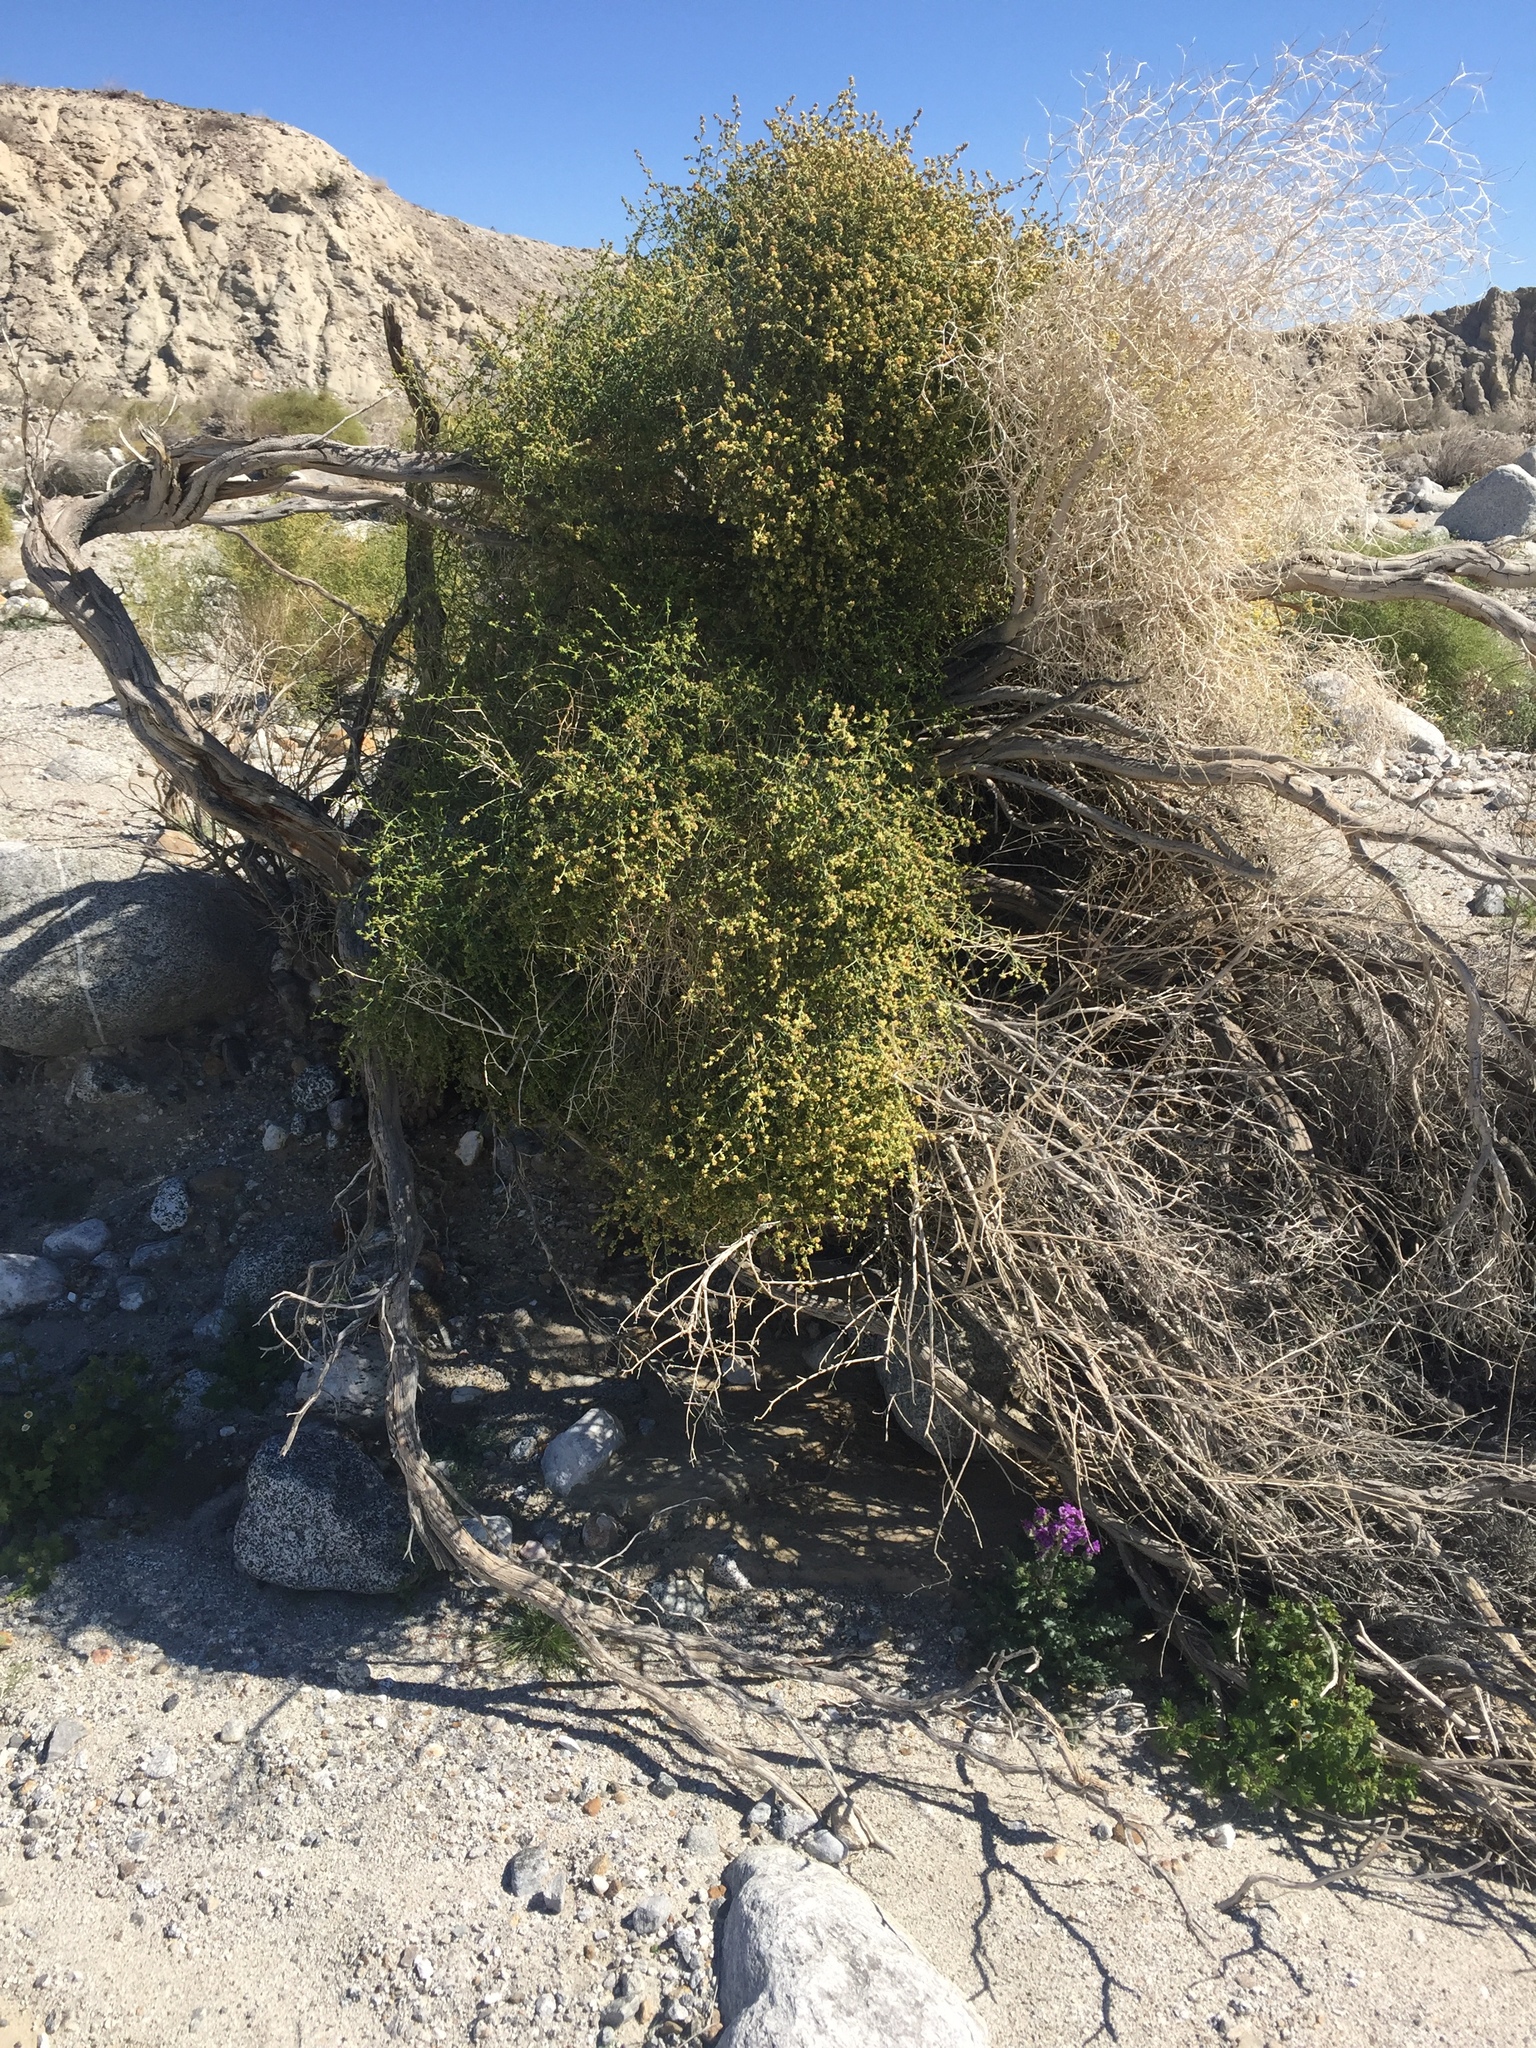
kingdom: Plantae
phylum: Tracheophyta
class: Magnoliopsida
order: Asterales
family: Asteraceae
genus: Ambrosia
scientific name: Ambrosia salsola
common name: Burrobrush
